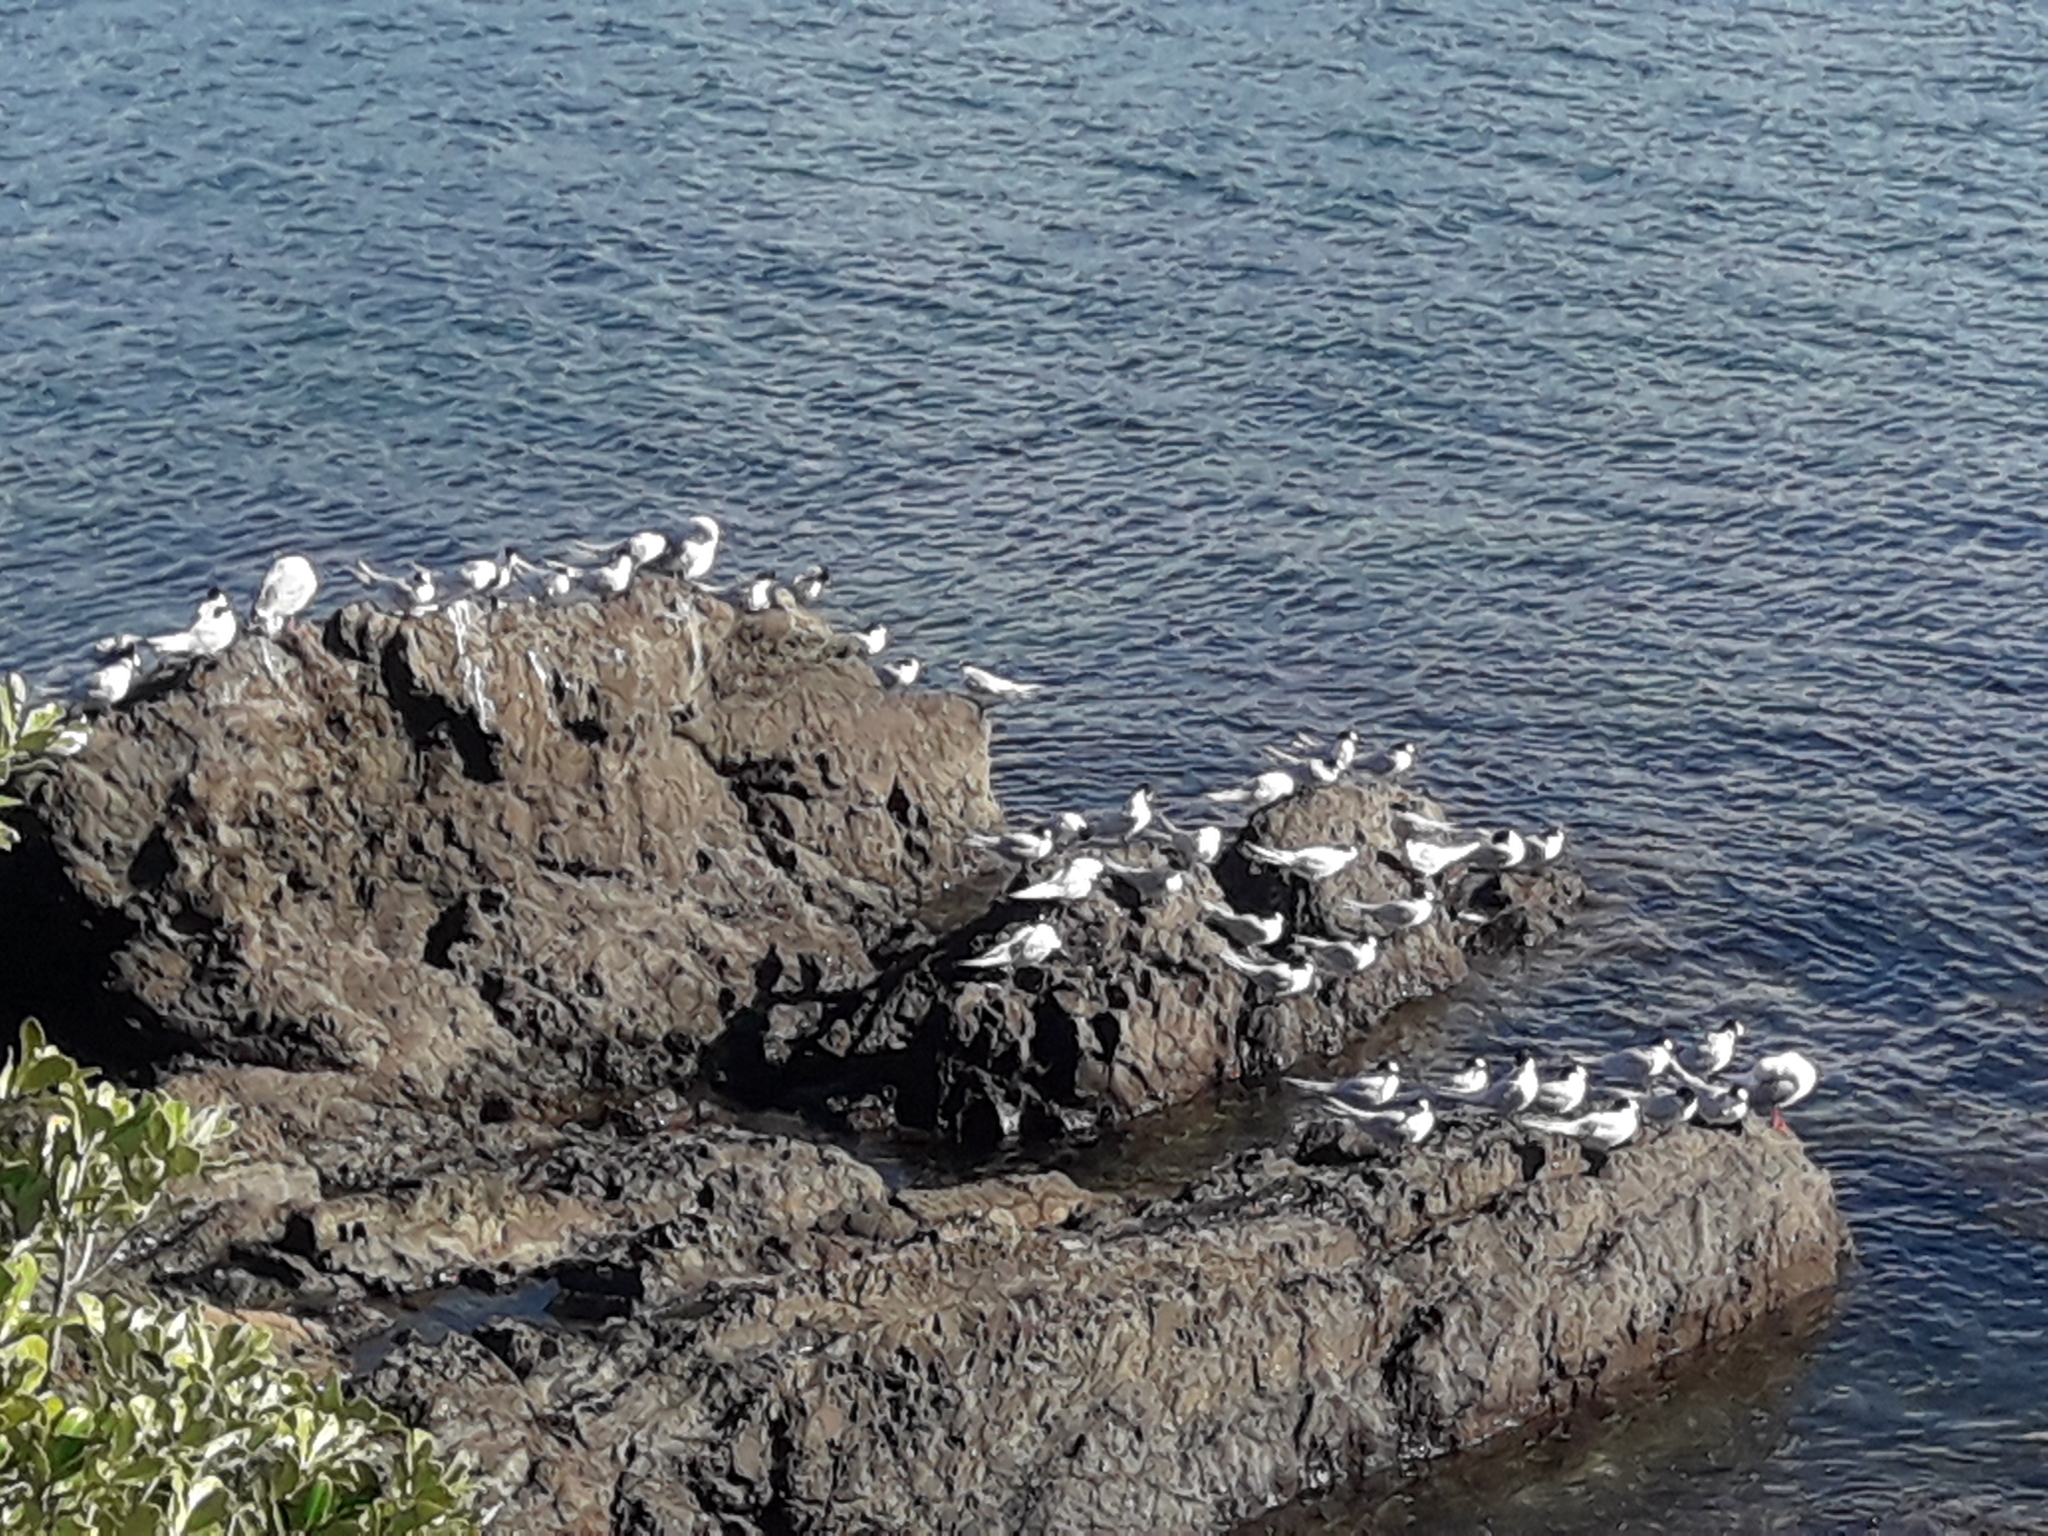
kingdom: Animalia
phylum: Chordata
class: Aves
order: Charadriiformes
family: Laridae
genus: Sterna
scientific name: Sterna striata
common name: White-fronted tern
